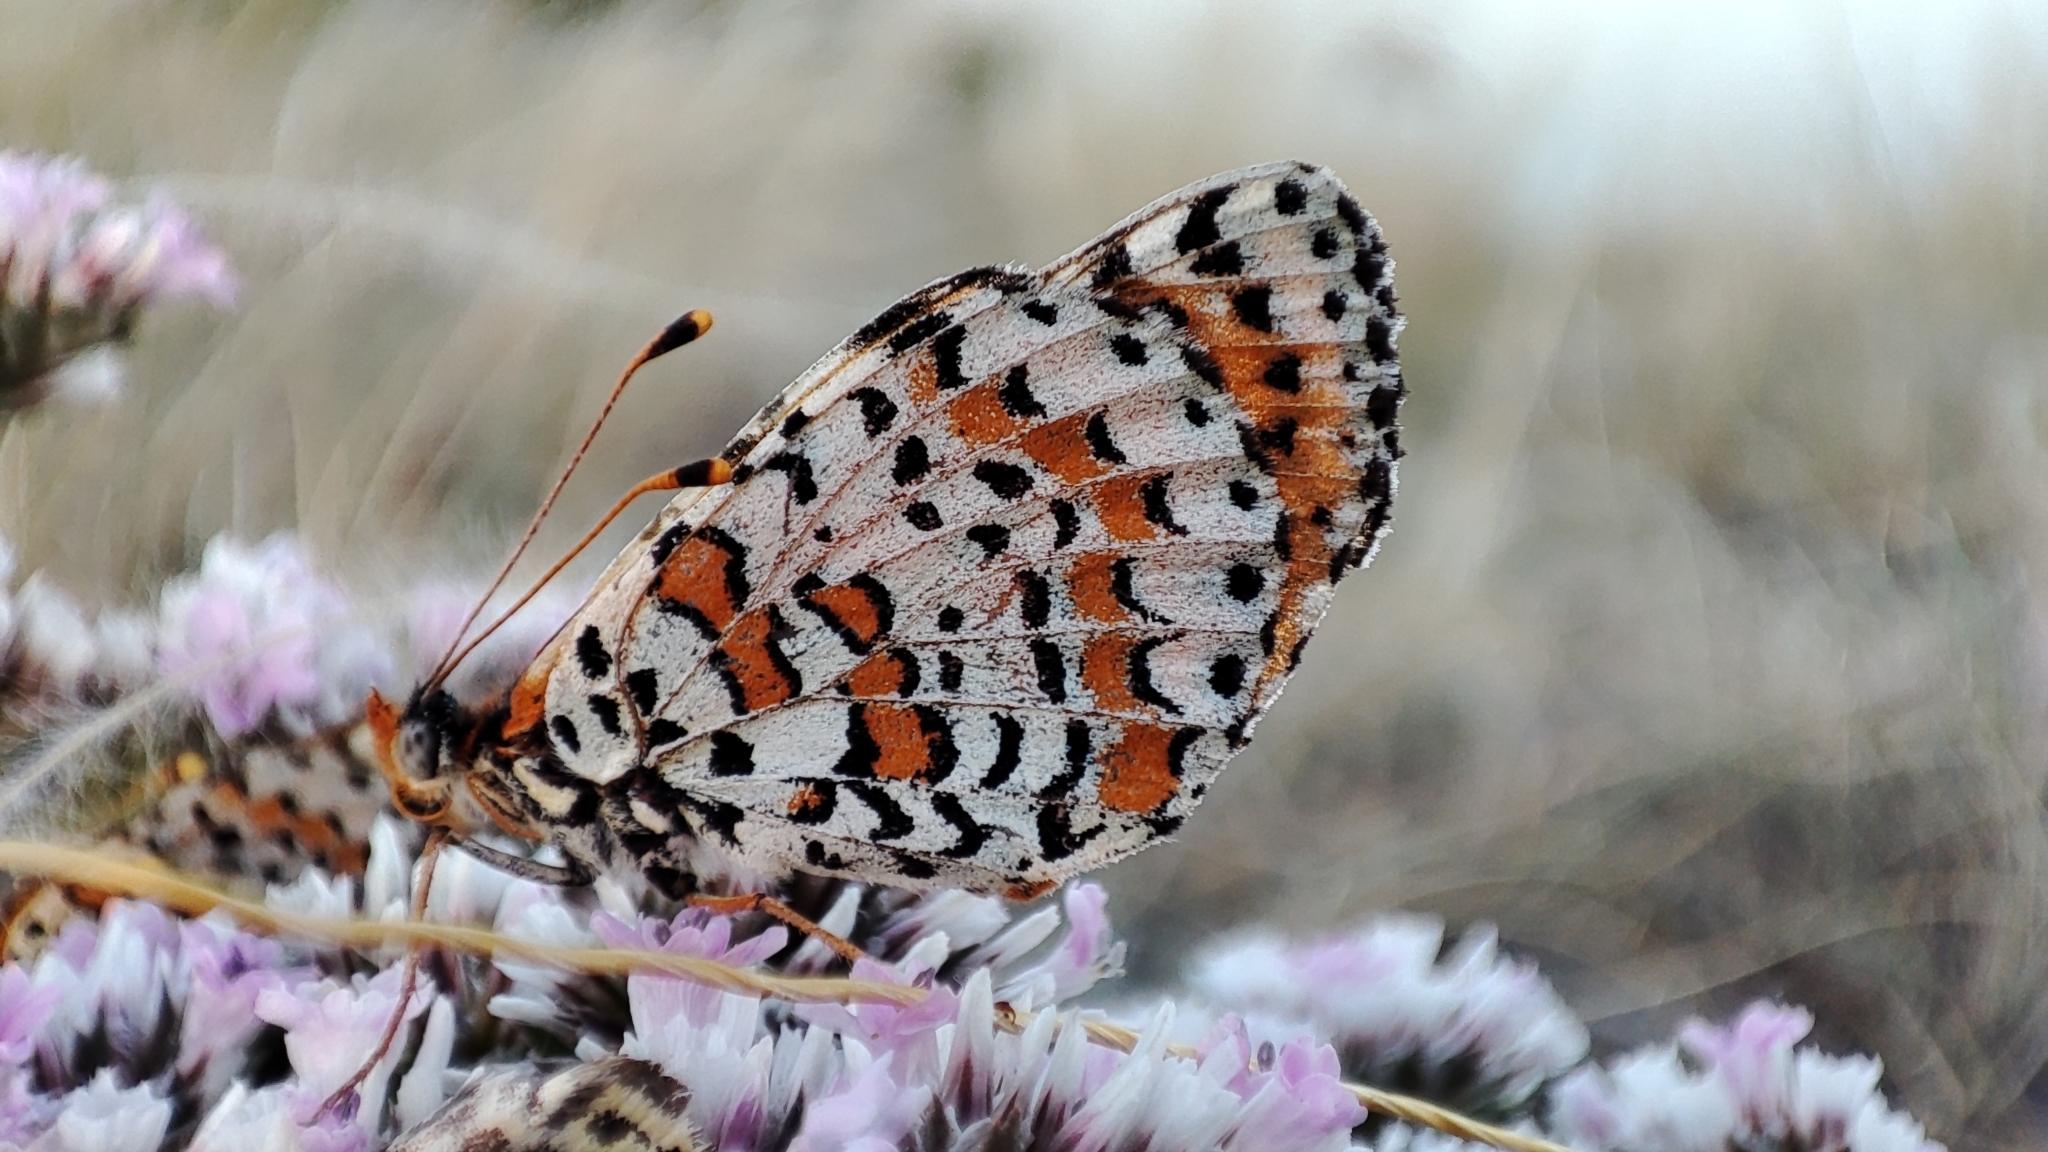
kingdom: Animalia
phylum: Arthropoda
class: Insecta
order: Lepidoptera
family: Nymphalidae
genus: Melitaea
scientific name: Melitaea didyma
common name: Spotted fritillary
